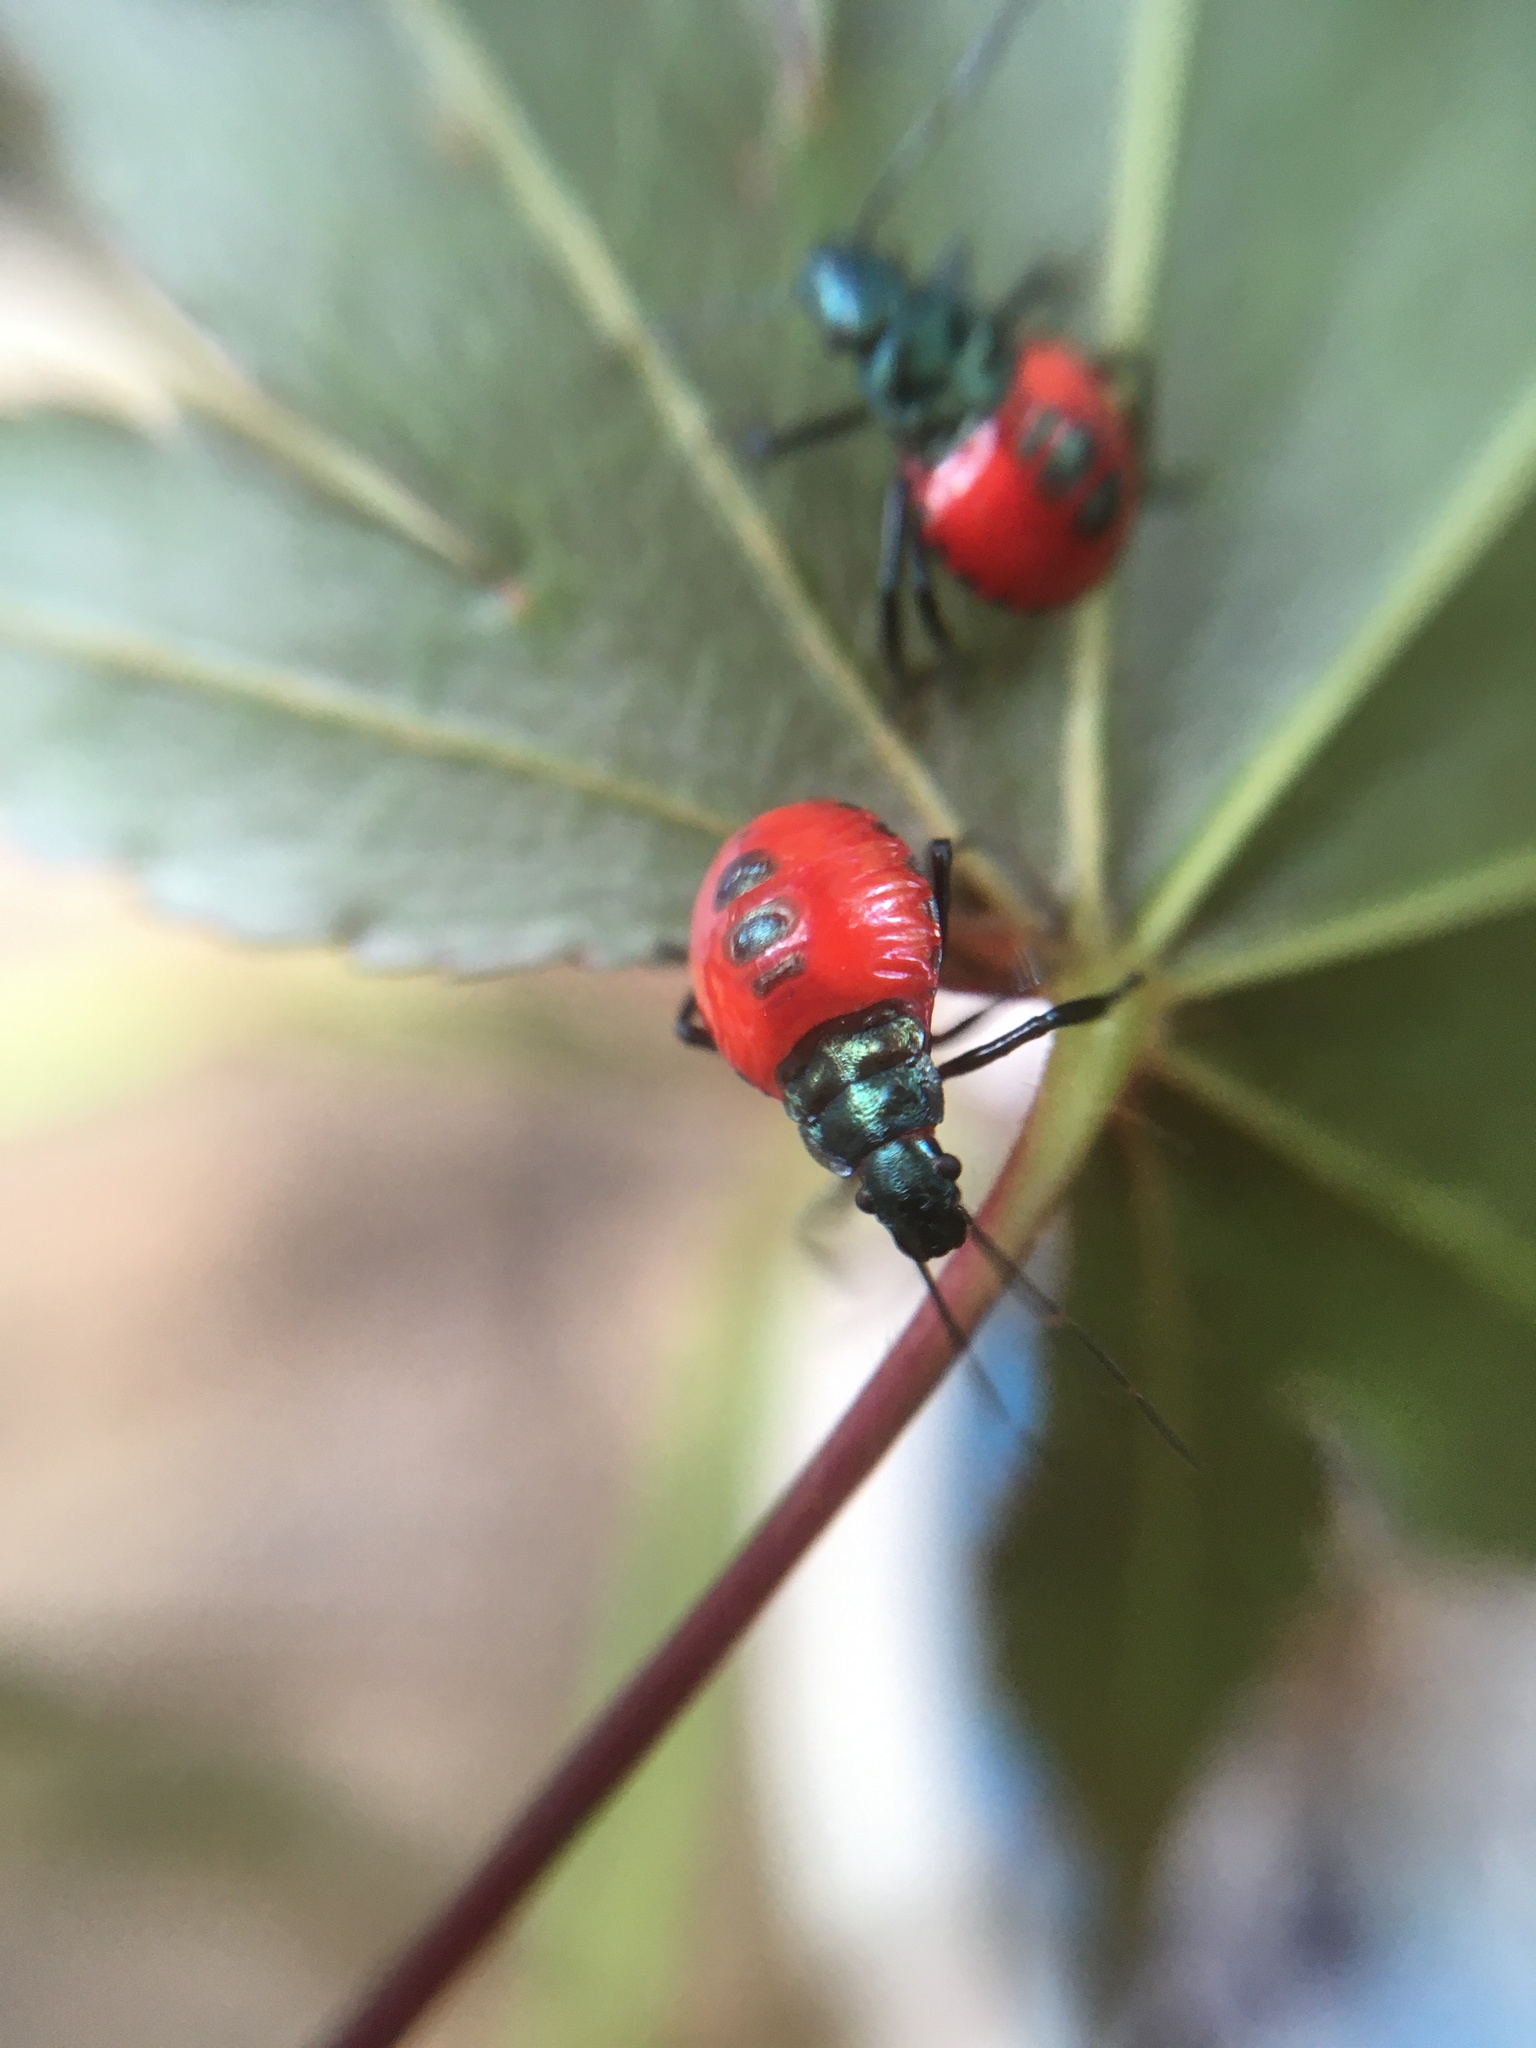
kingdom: Animalia
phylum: Arthropoda
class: Insecta
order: Hemiptera
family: Pentatomidae
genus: Euthyrhynchus
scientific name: Euthyrhynchus floridanus
